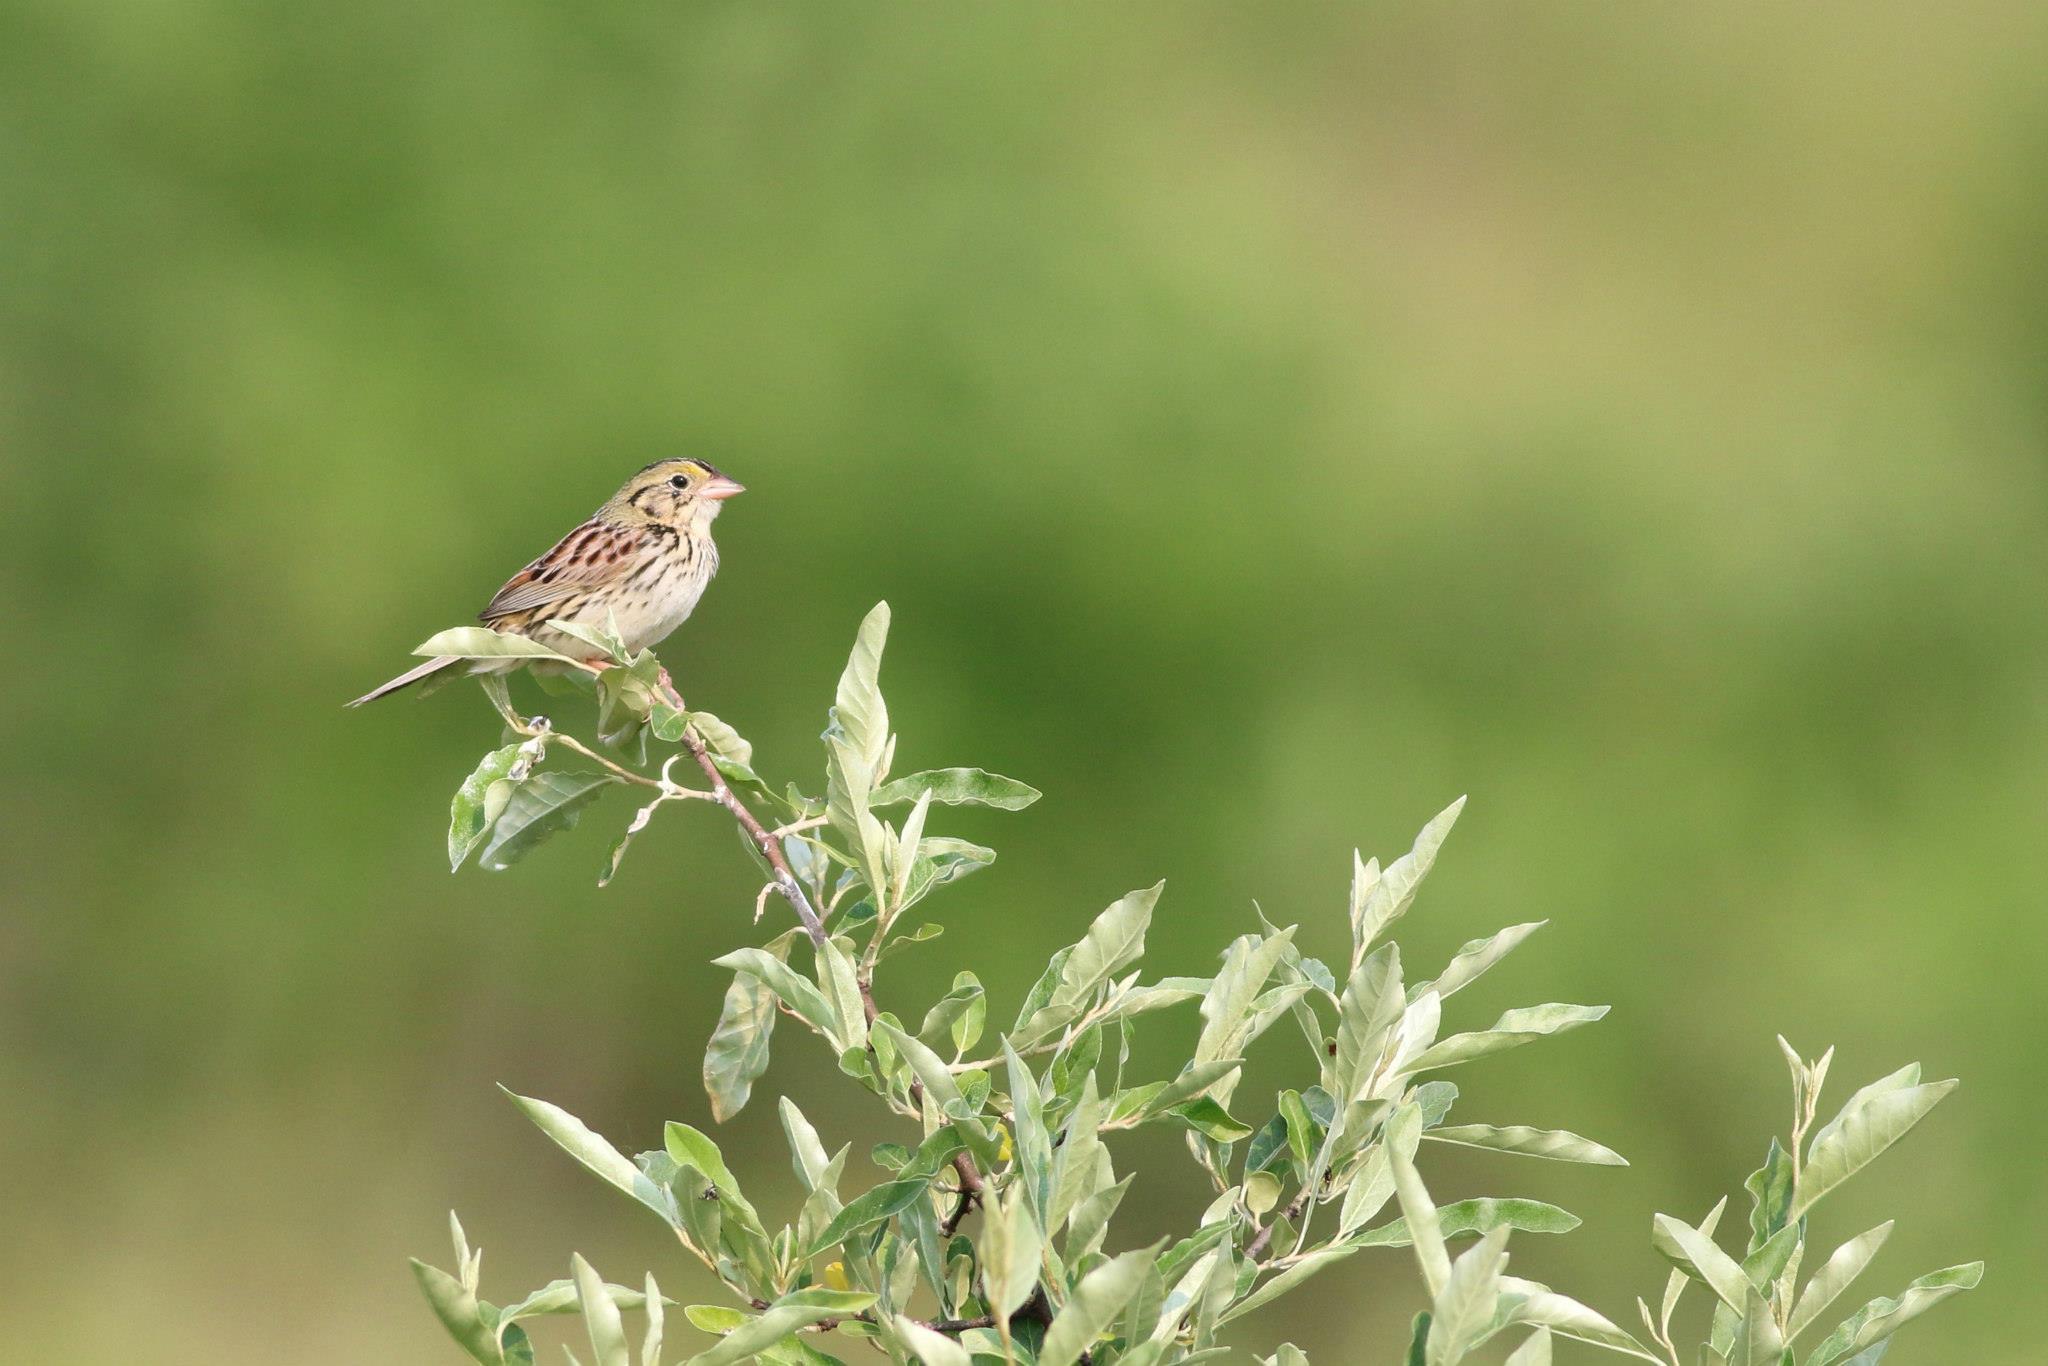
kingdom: Animalia
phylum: Chordata
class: Aves
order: Passeriformes
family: Passerellidae
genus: Centronyx
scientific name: Centronyx henslowii
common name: Henslow's sparrow
